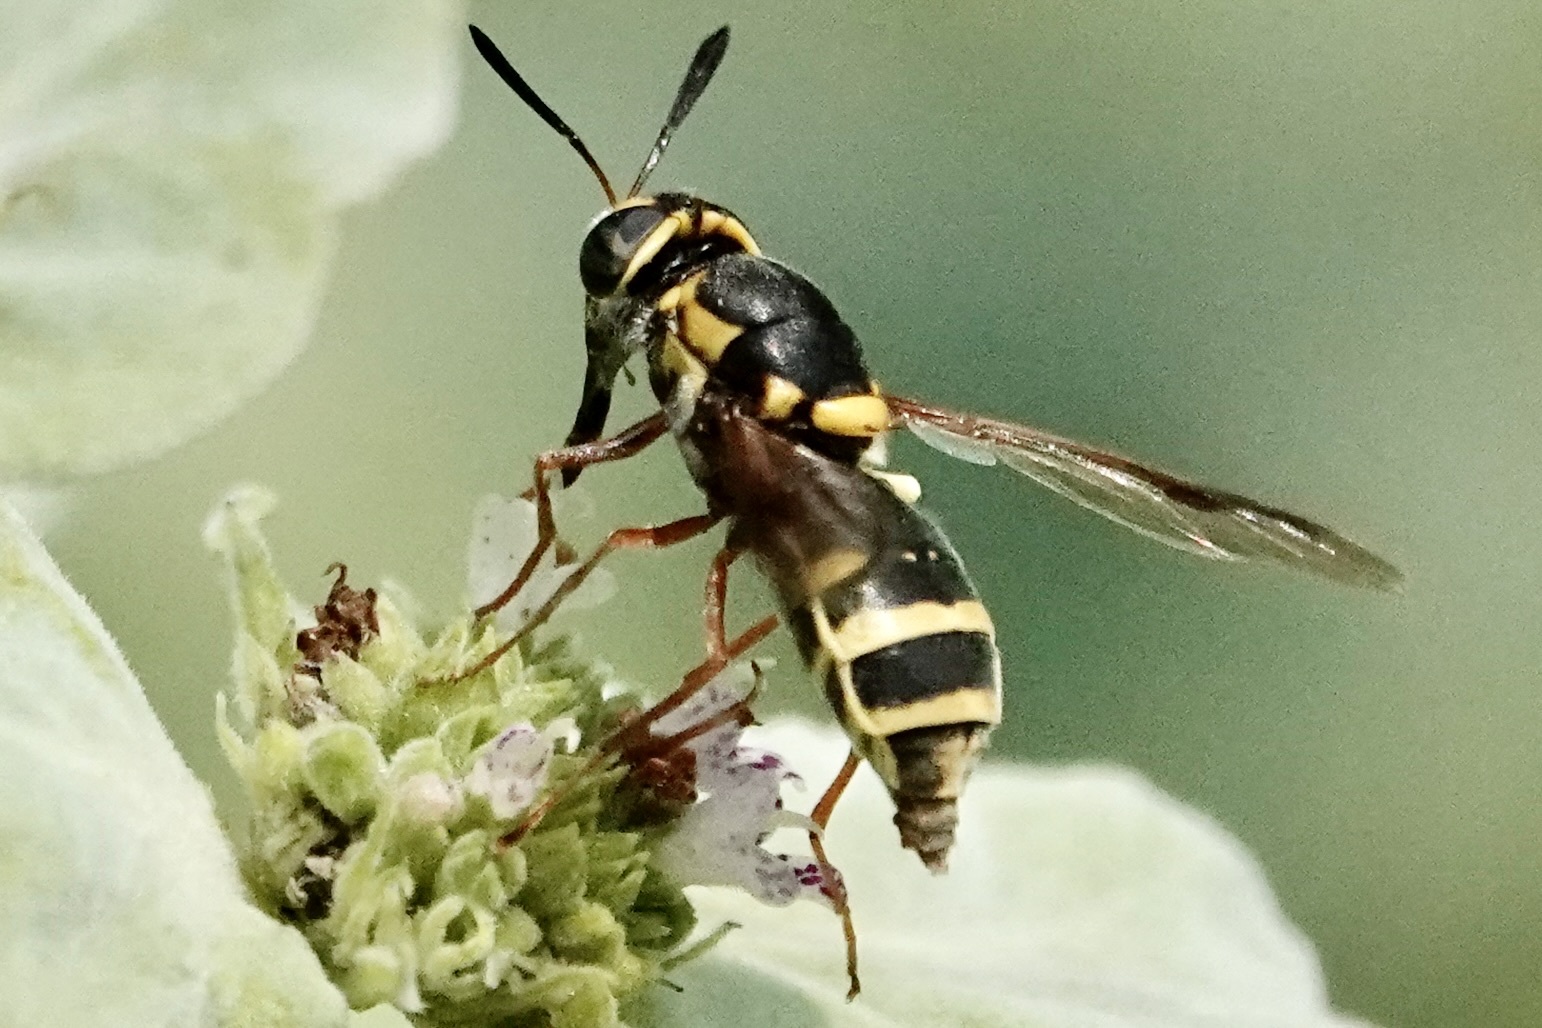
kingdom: Animalia
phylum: Arthropoda
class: Insecta
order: Diptera
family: Stratiomyidae
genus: Hoplitimyia
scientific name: Hoplitimyia constans
